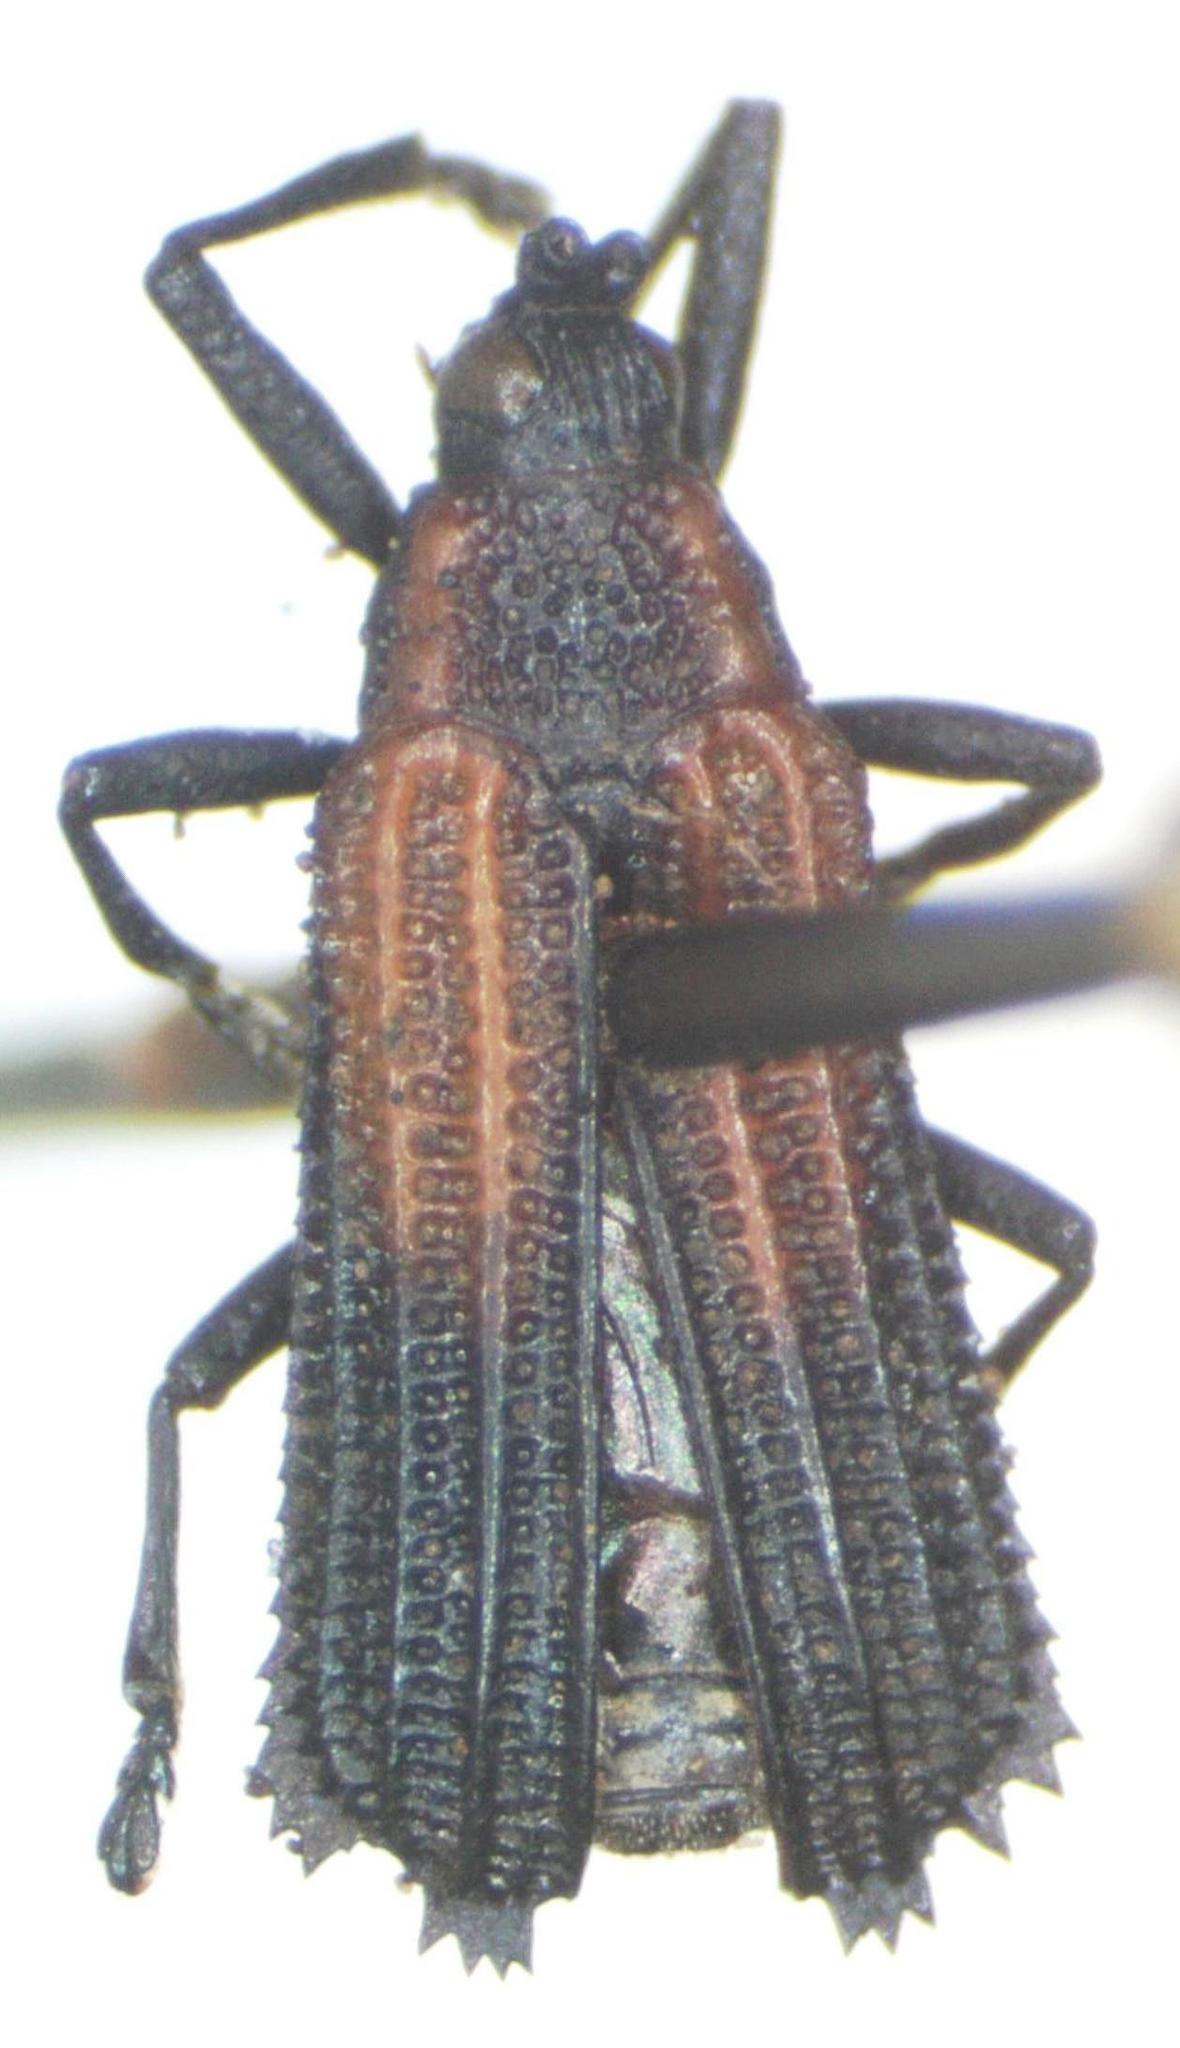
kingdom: Animalia
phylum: Arthropoda
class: Insecta
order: Coleoptera
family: Chrysomelidae
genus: Pentispa
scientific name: Pentispa clarkella
